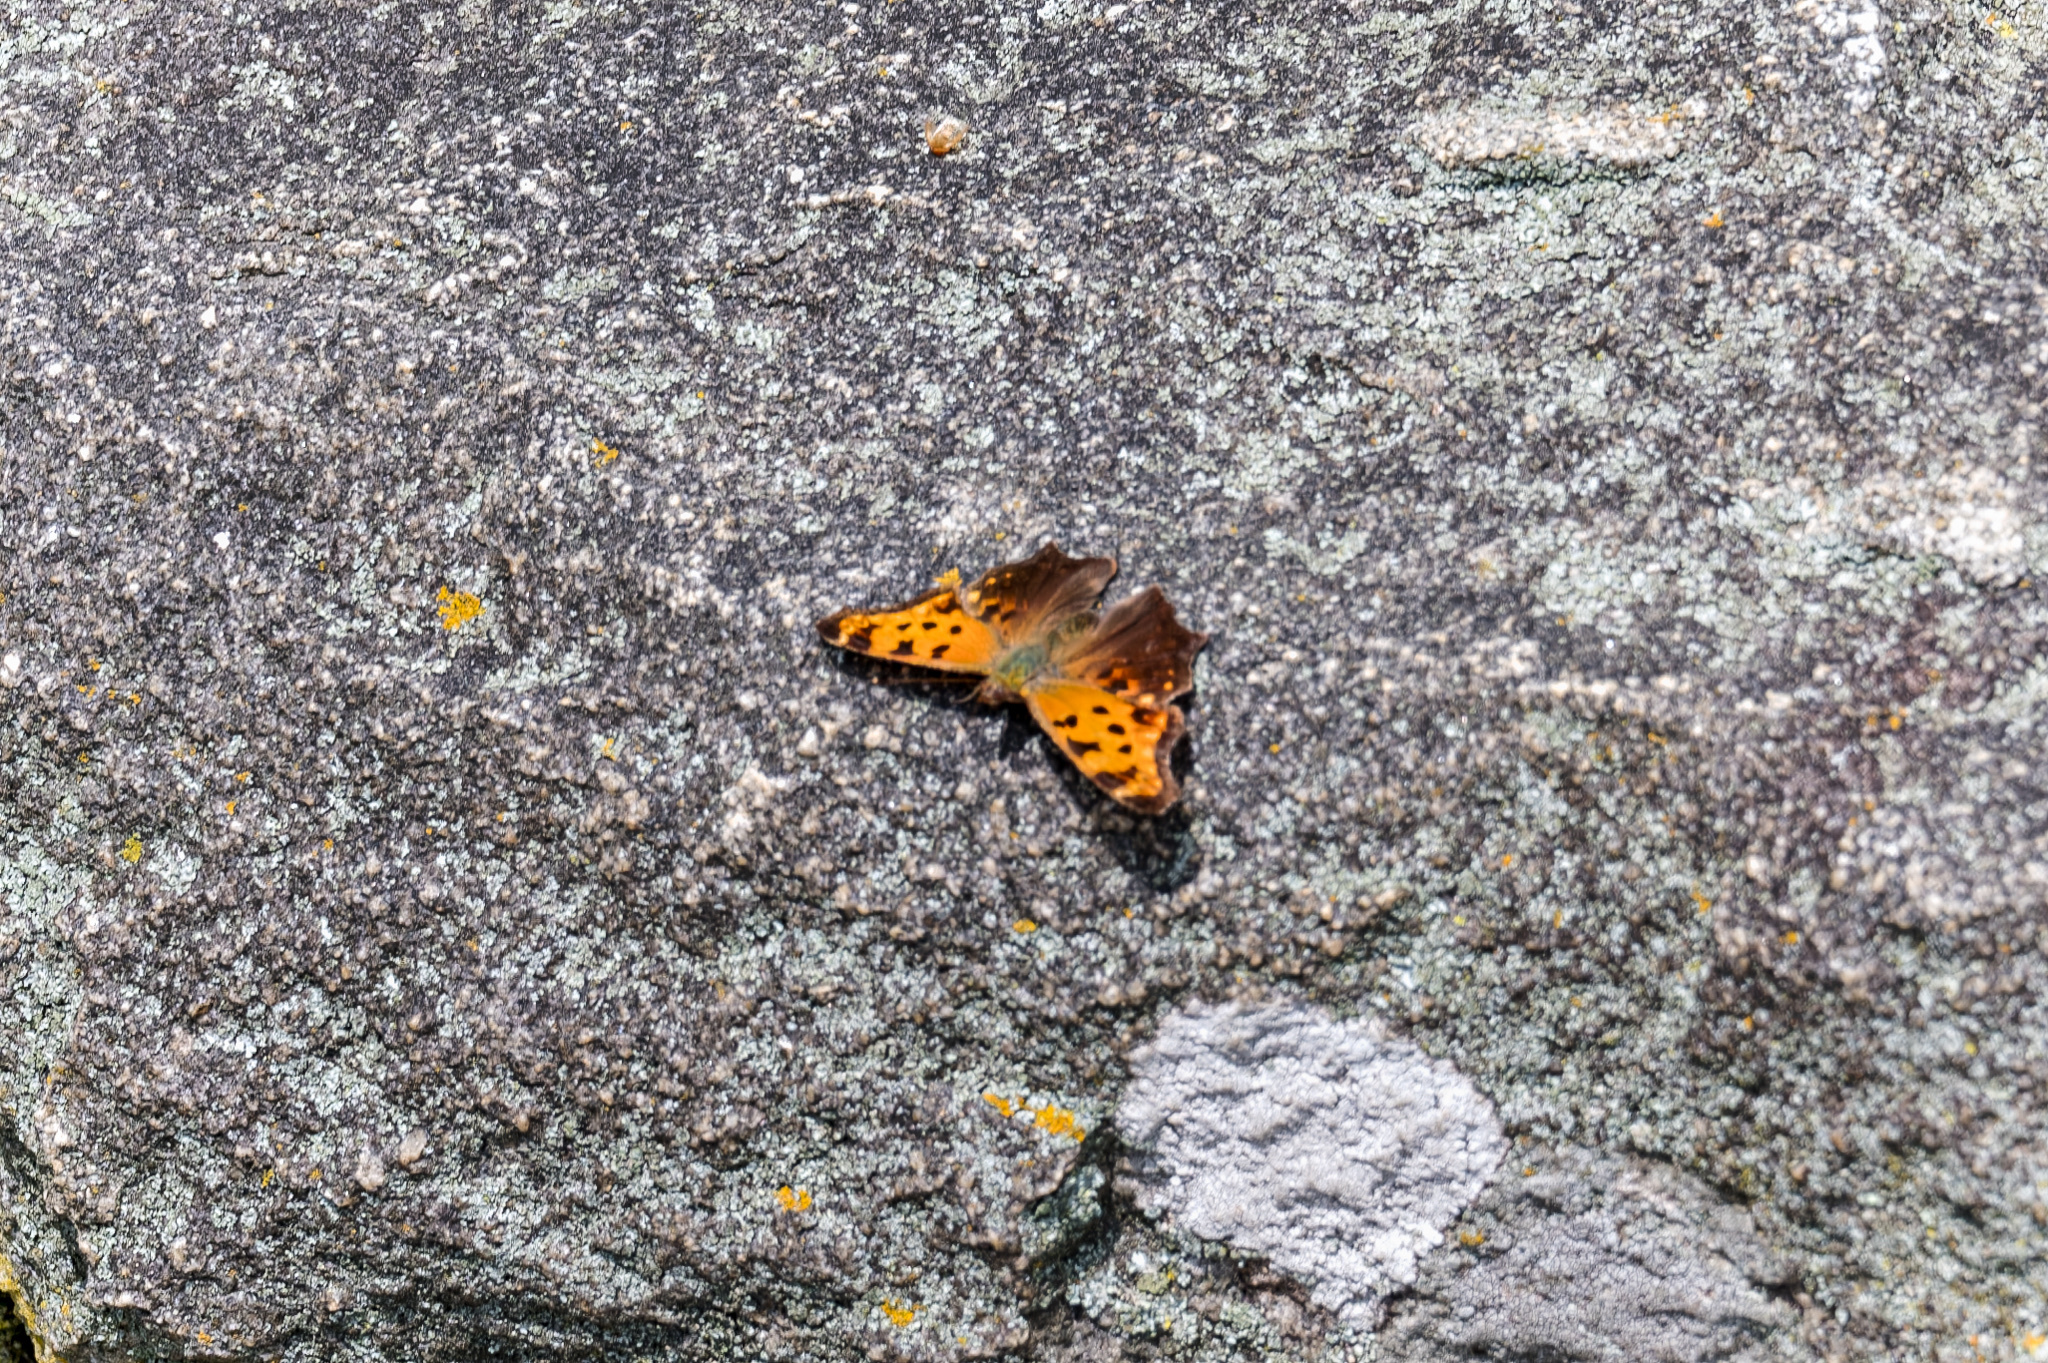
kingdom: Animalia
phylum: Arthropoda
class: Insecta
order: Lepidoptera
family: Nymphalidae
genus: Polygonia
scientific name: Polygonia comma
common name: Eastern comma
